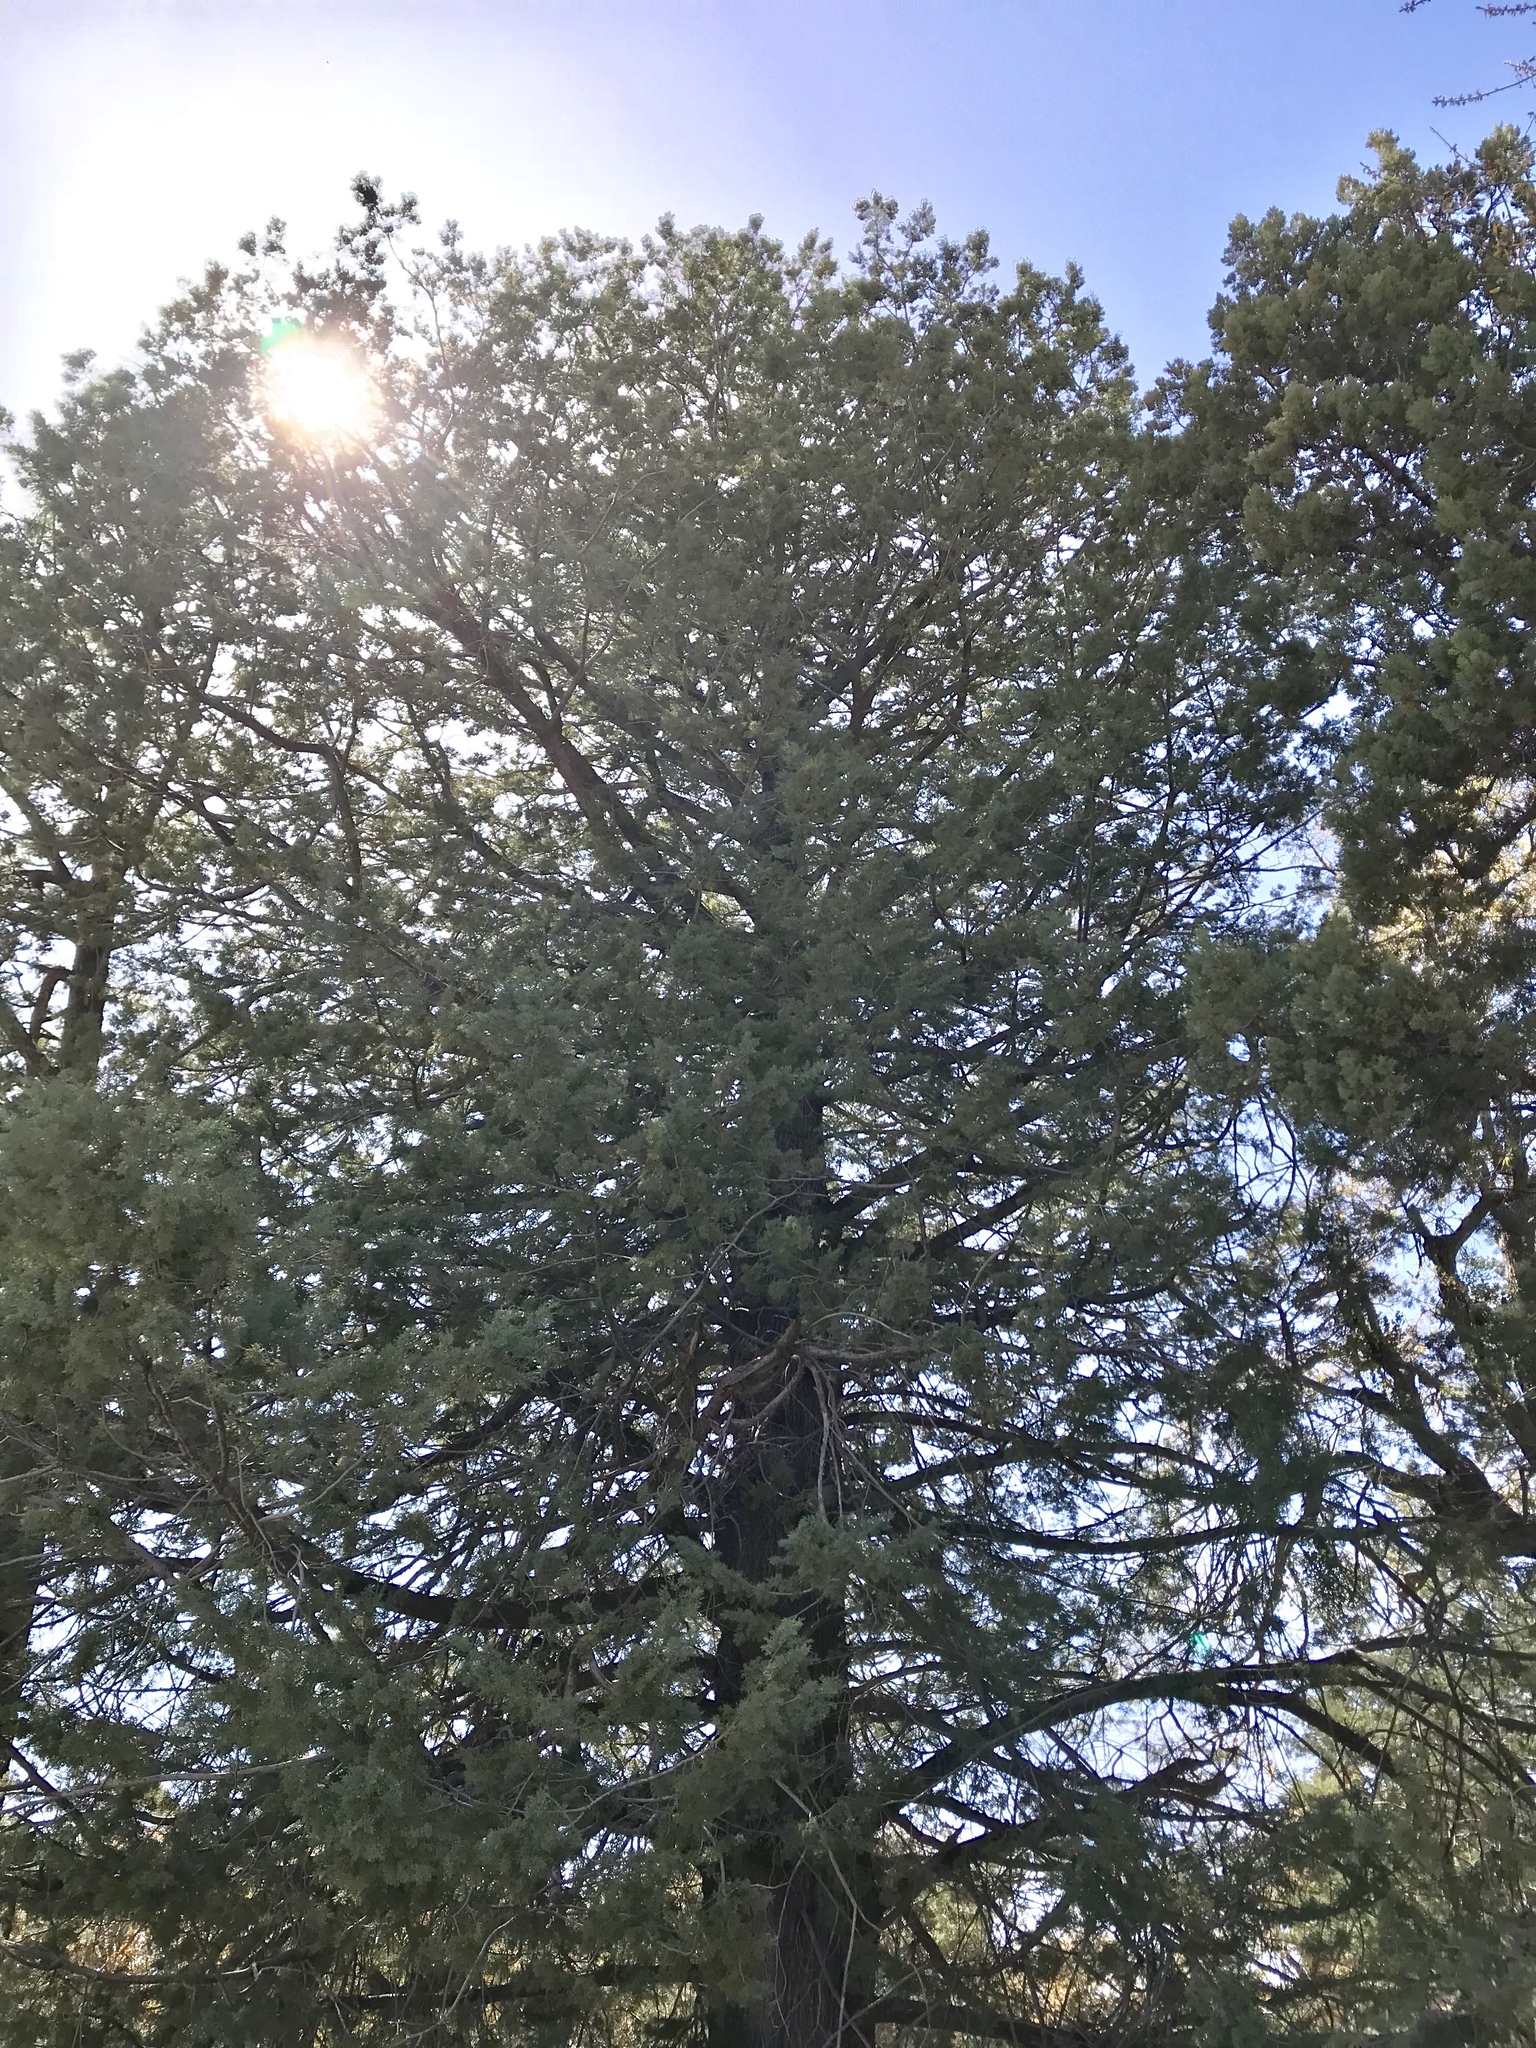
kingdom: Plantae
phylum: Tracheophyta
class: Pinopsida
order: Pinales
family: Cupressaceae
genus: Cupressus
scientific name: Cupressus arizonica
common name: Arizona cypress
